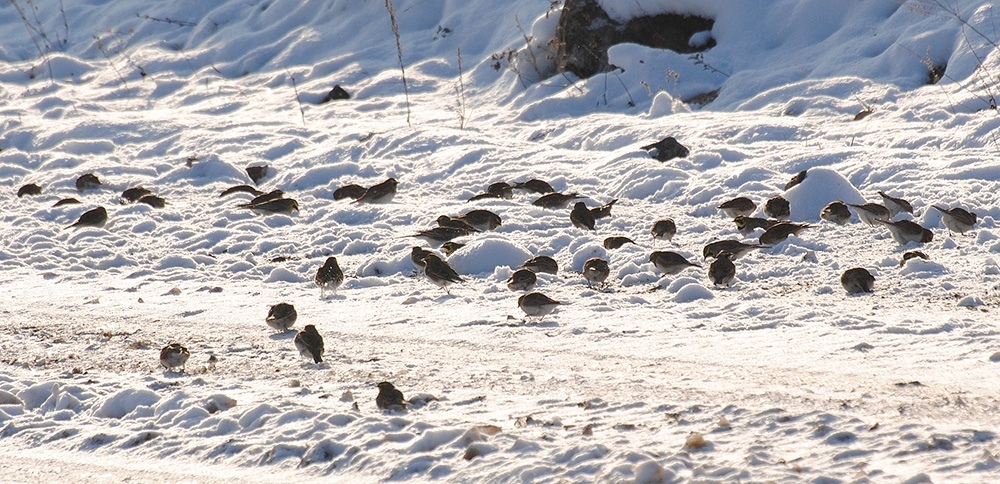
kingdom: Animalia
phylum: Chordata
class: Aves
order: Passeriformes
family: Alaudidae
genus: Eremophila
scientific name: Eremophila alpestris
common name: Horned lark
